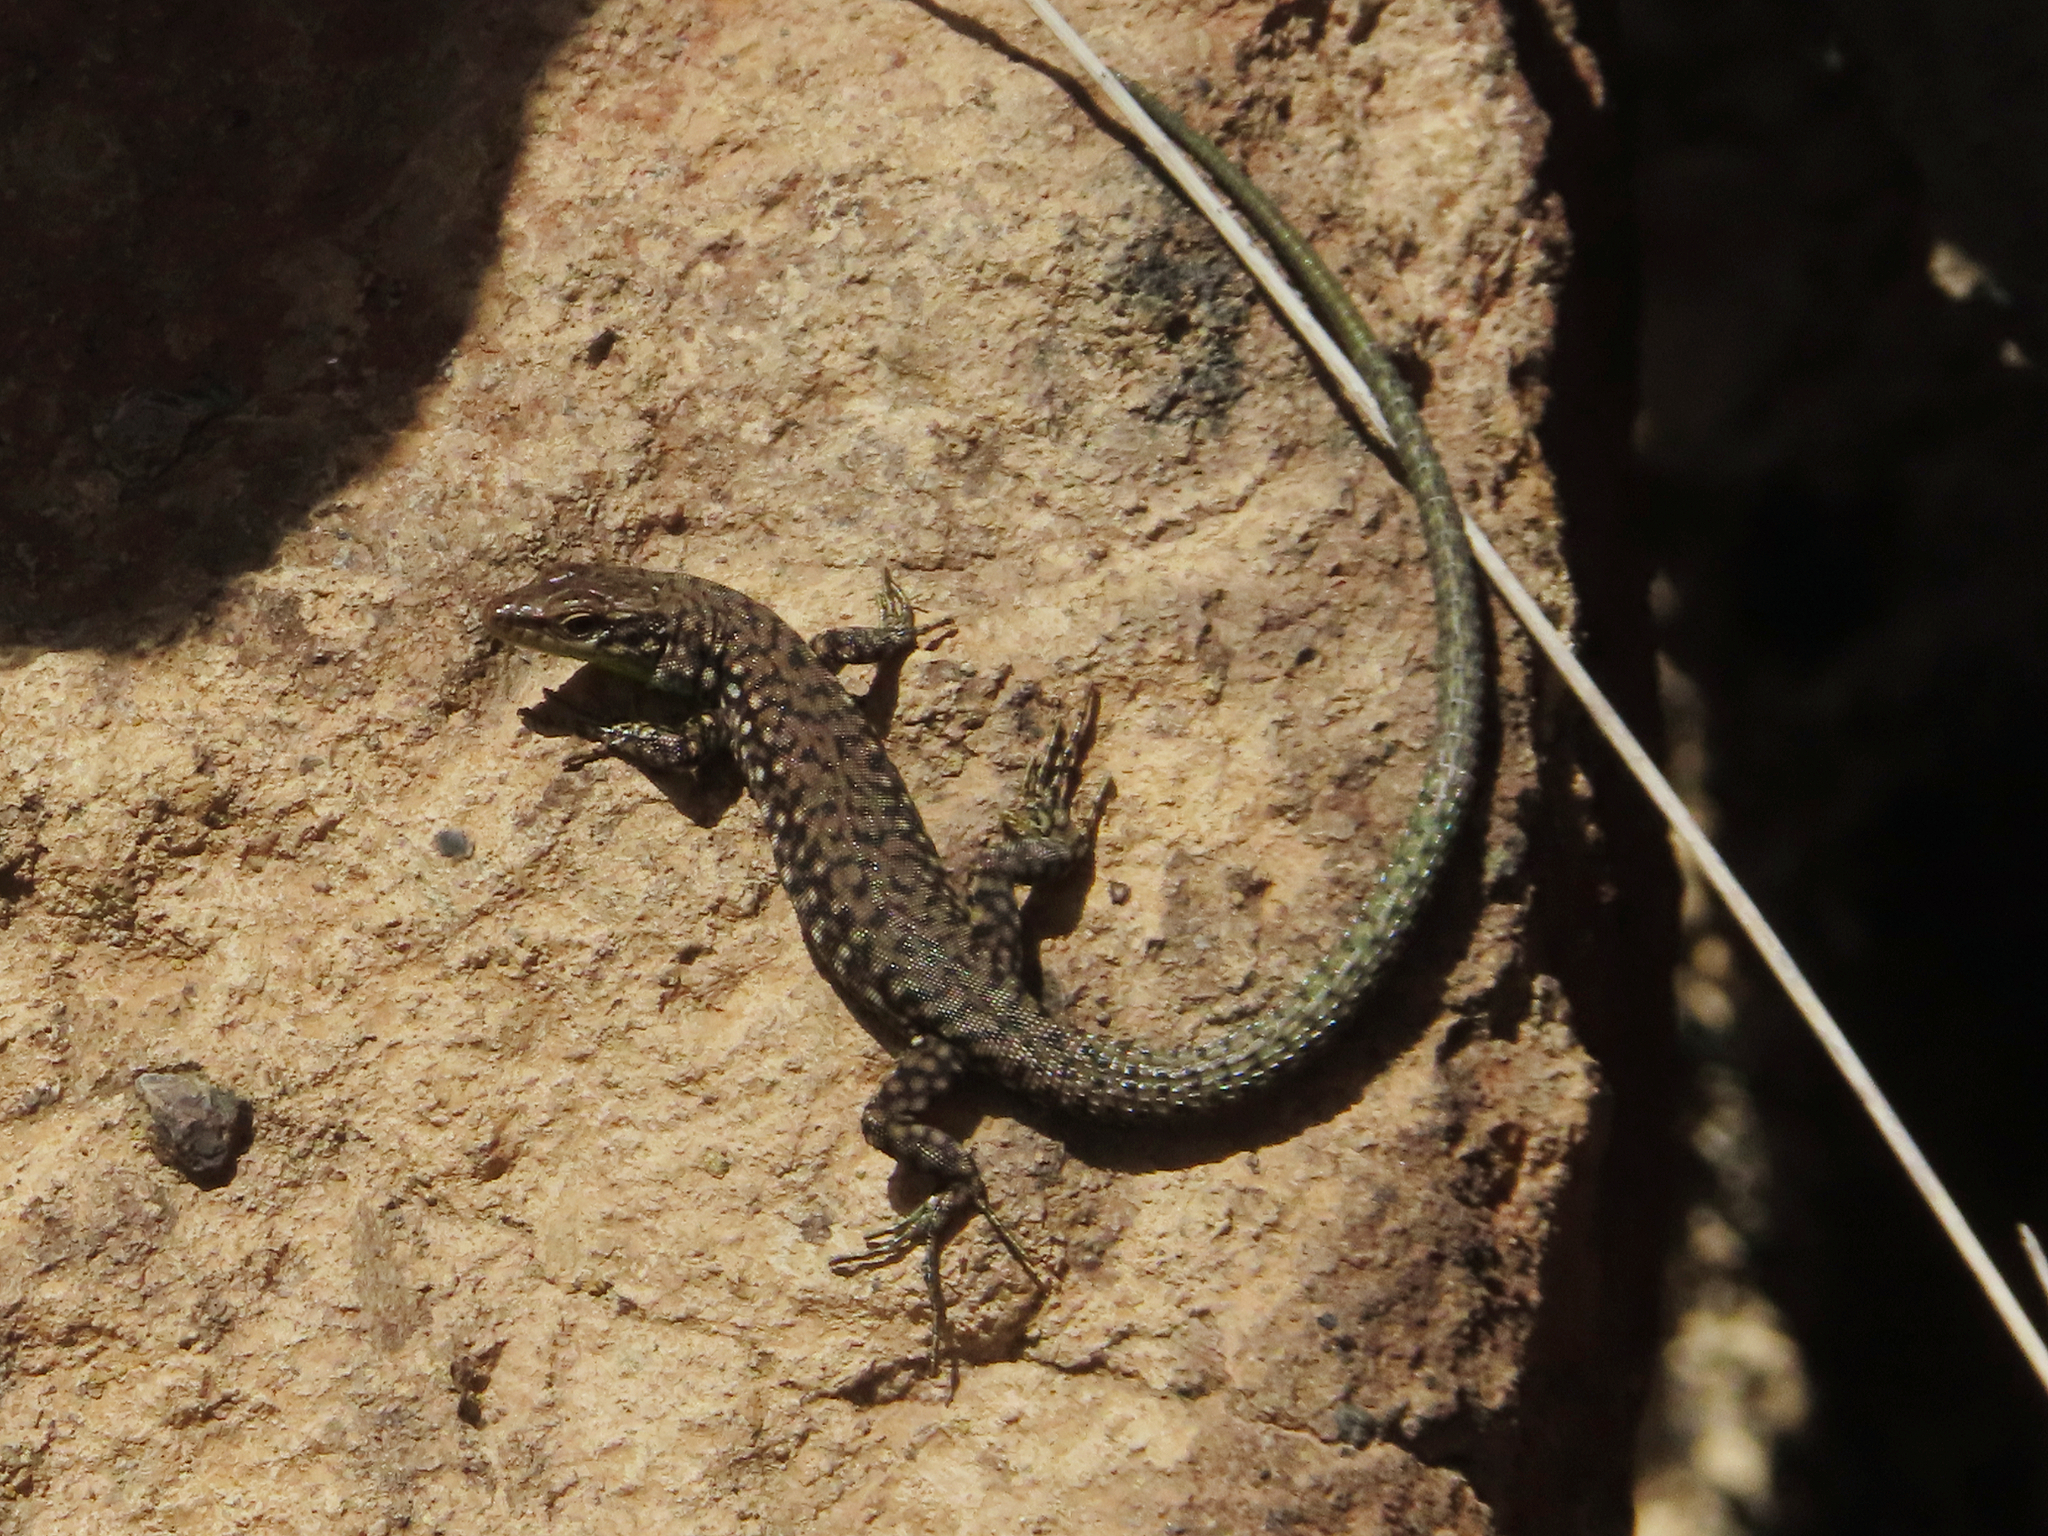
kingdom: Animalia
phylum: Chordata
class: Squamata
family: Lacertidae
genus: Darevskia
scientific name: Darevskia
